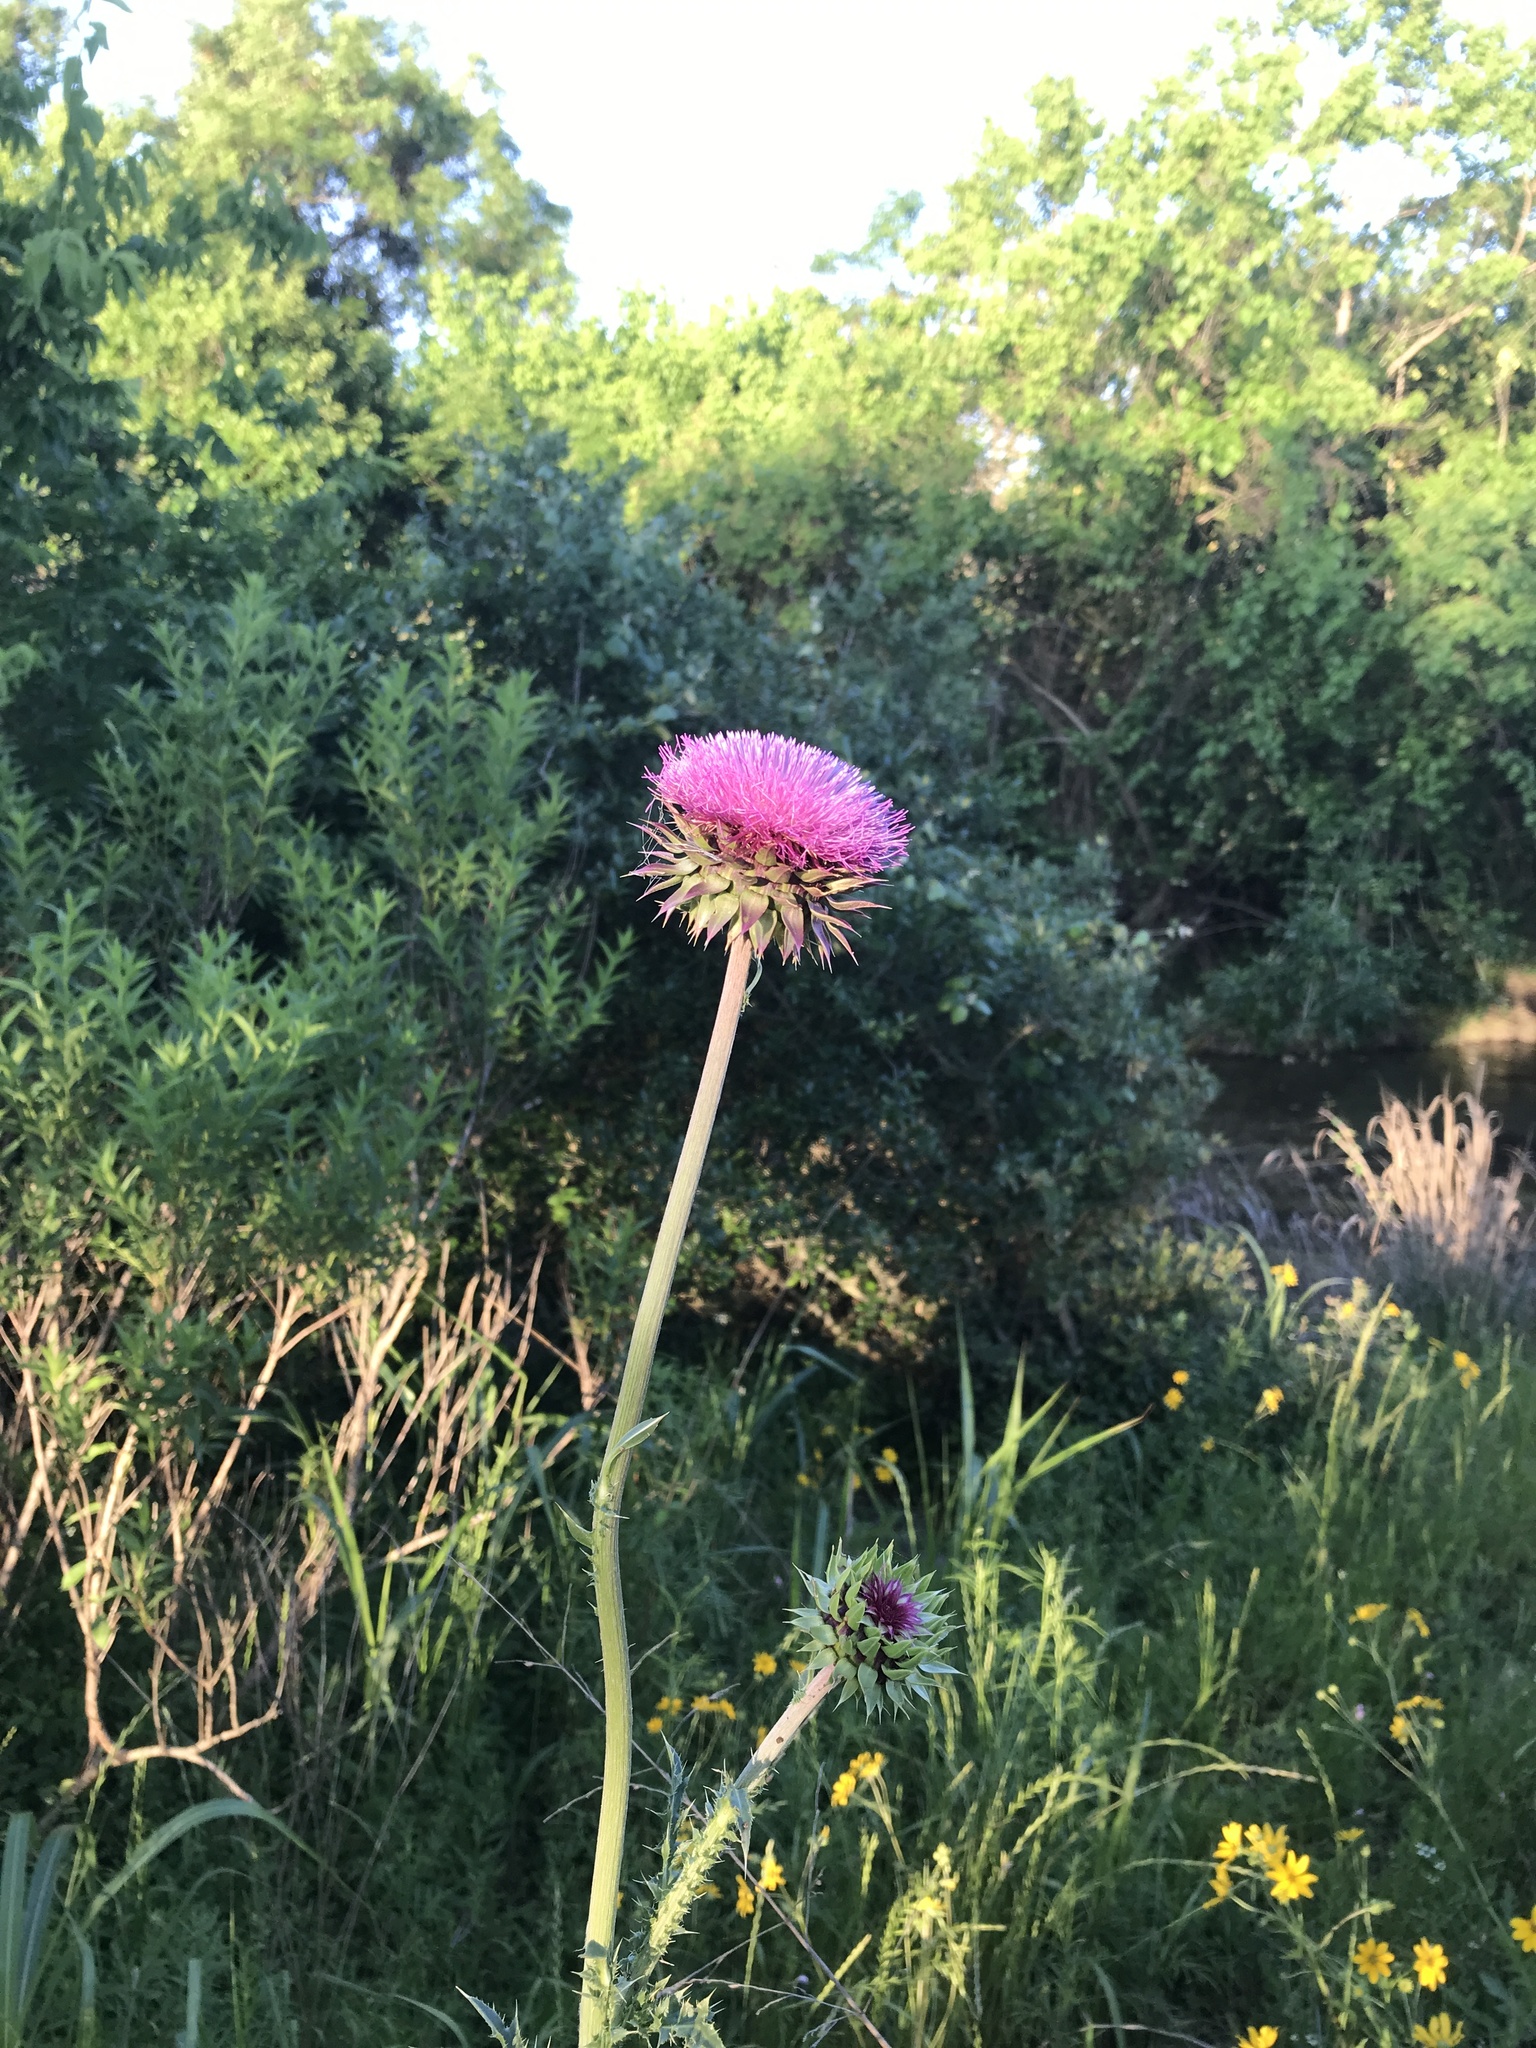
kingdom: Plantae
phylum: Tracheophyta
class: Magnoliopsida
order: Asterales
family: Asteraceae
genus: Carduus
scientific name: Carduus nutans
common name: Musk thistle
